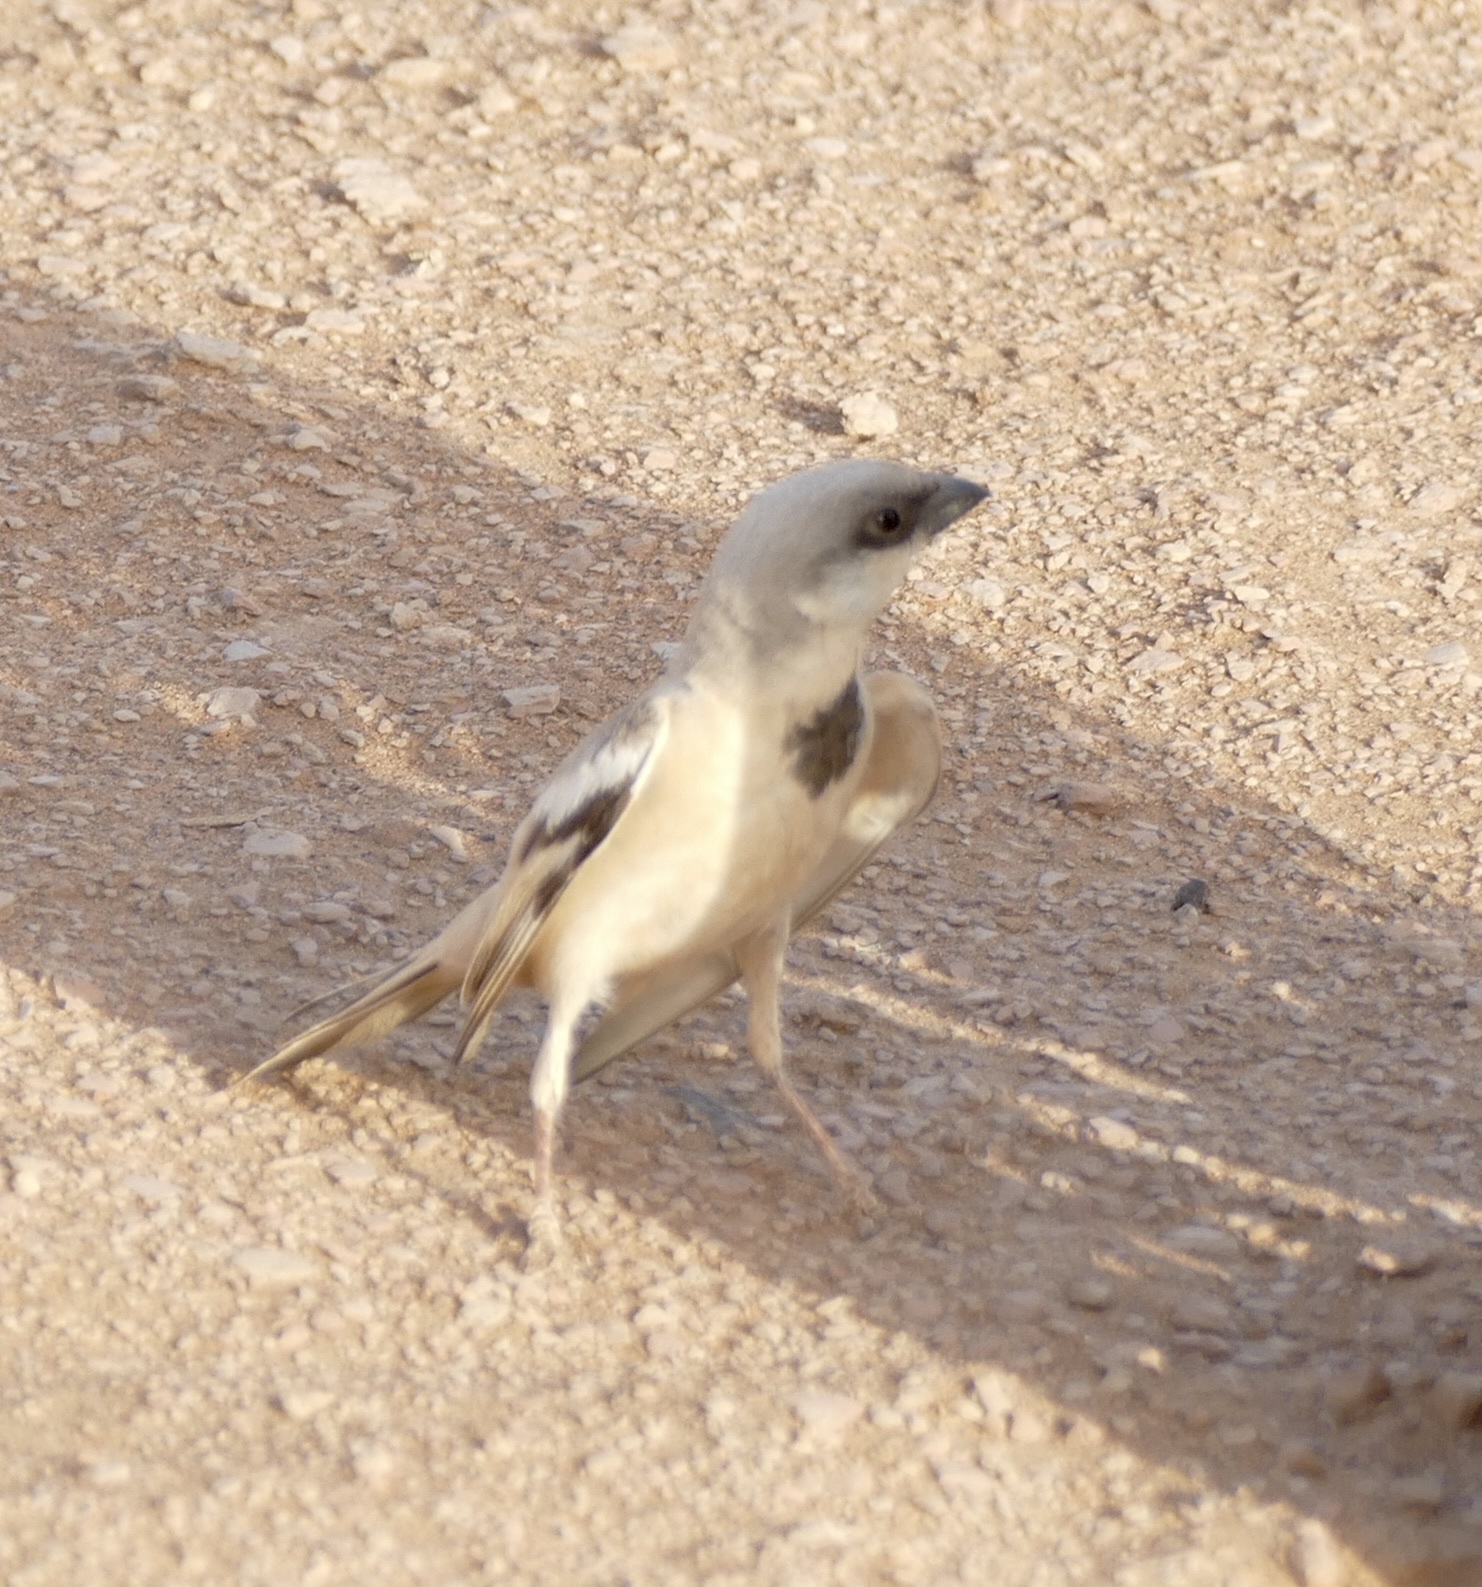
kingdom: Animalia
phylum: Chordata
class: Aves
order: Passeriformes
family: Passeridae
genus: Passer
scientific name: Passer simplex
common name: Desert sparrow
